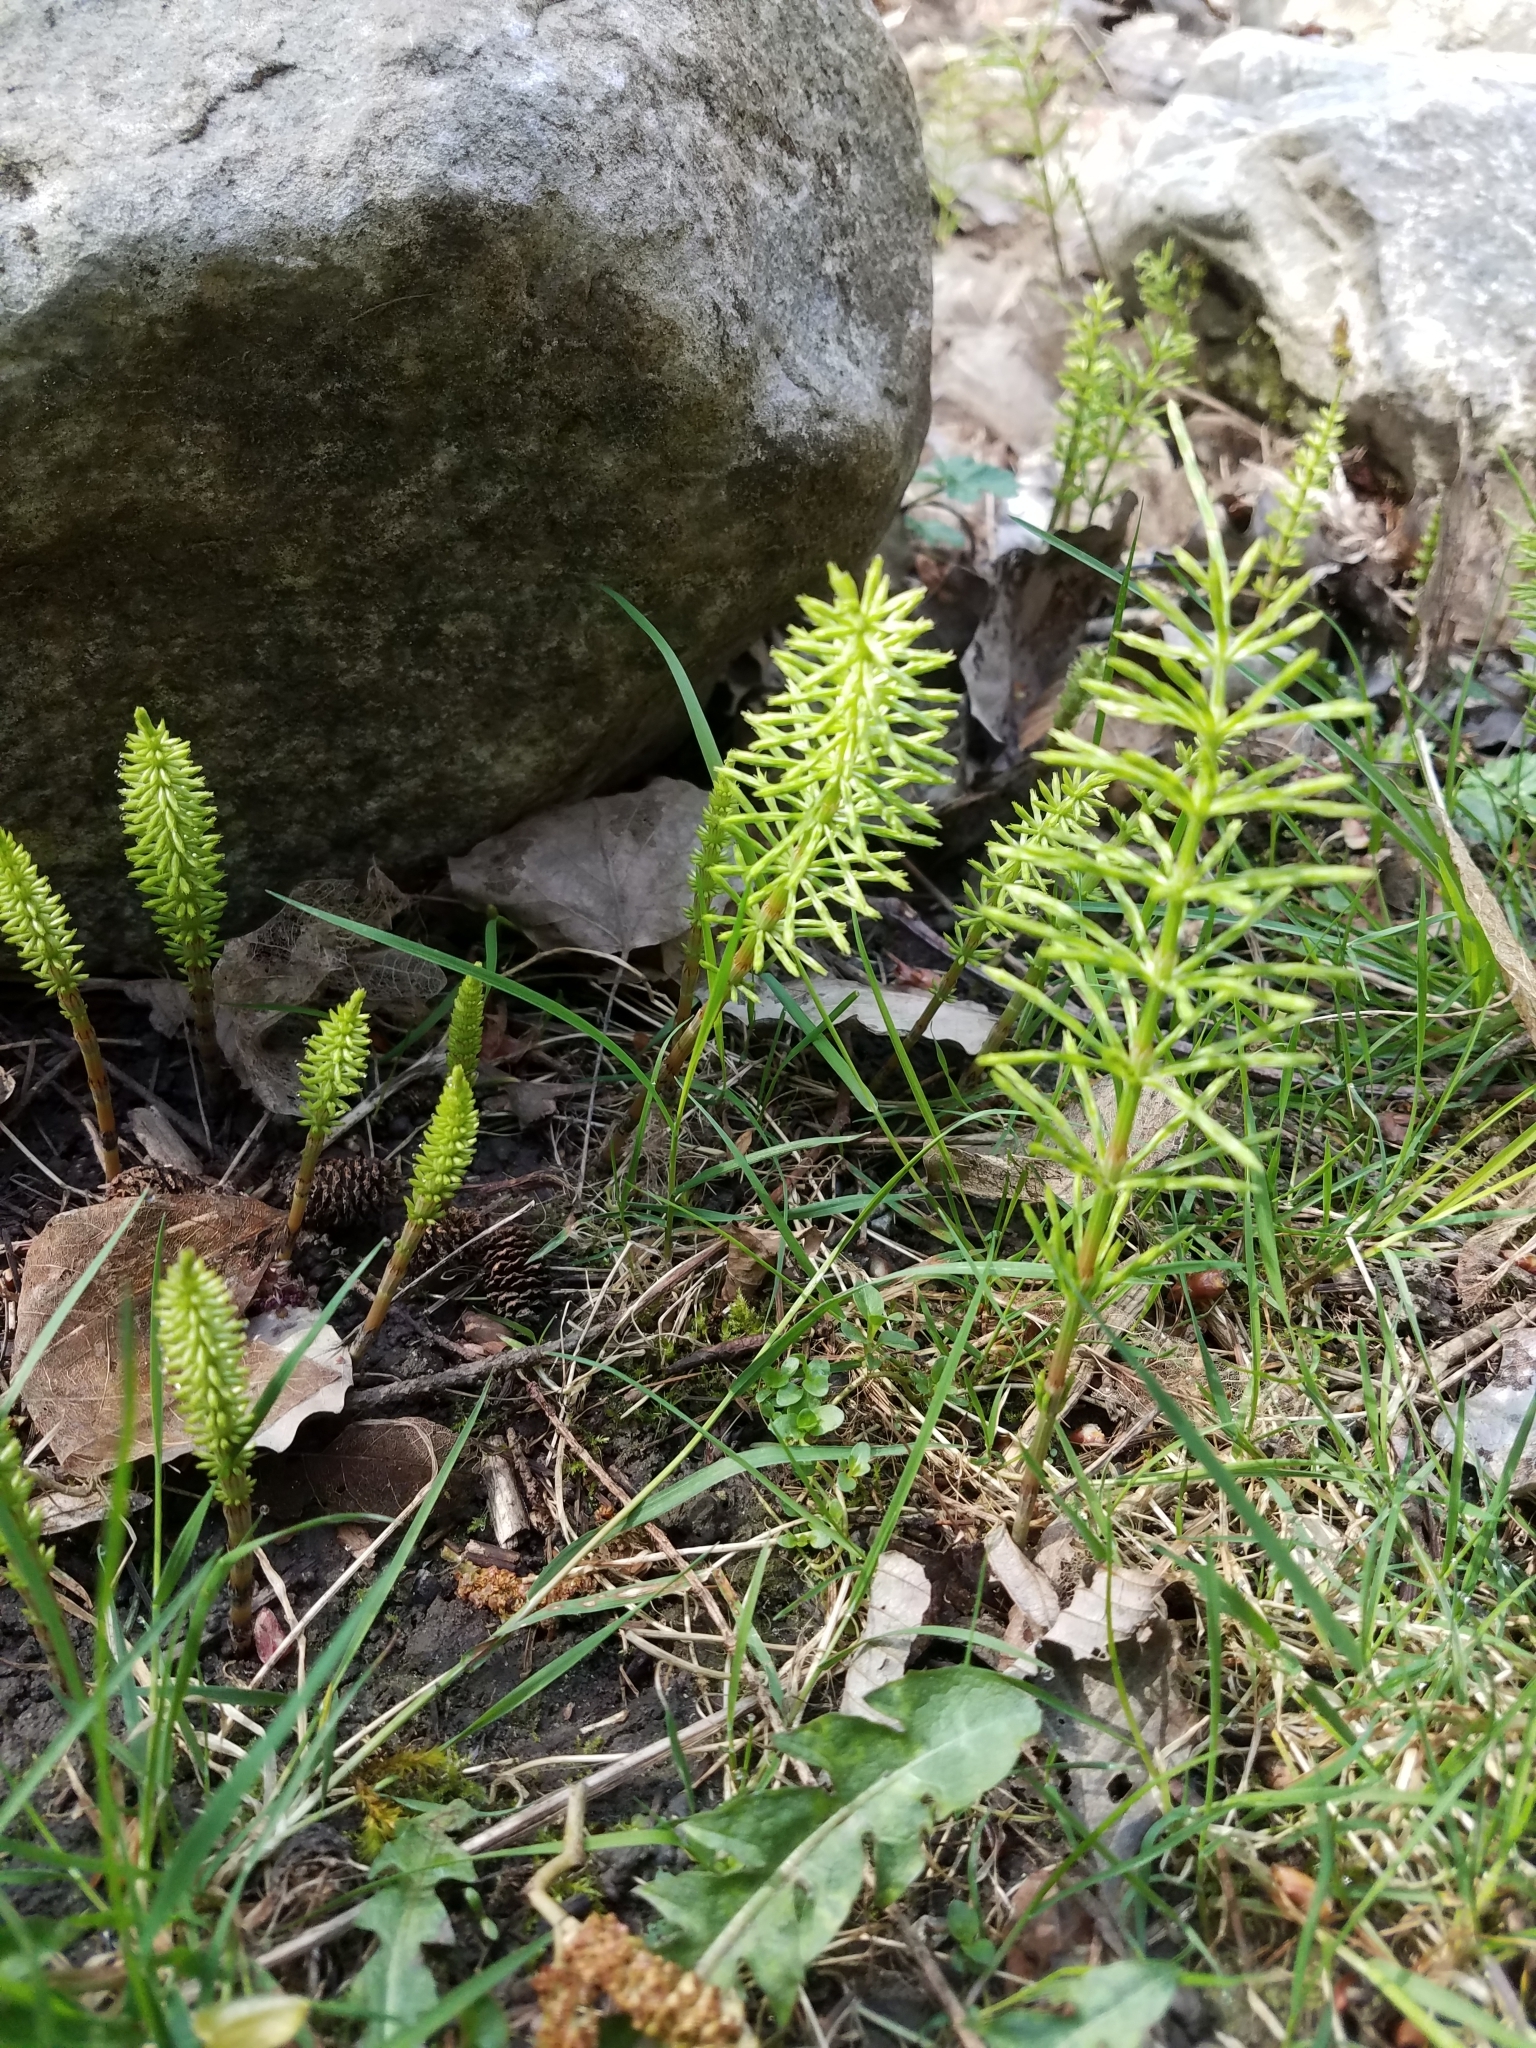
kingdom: Plantae
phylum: Tracheophyta
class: Polypodiopsida
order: Equisetales
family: Equisetaceae
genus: Equisetum
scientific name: Equisetum arvense
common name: Field horsetail
